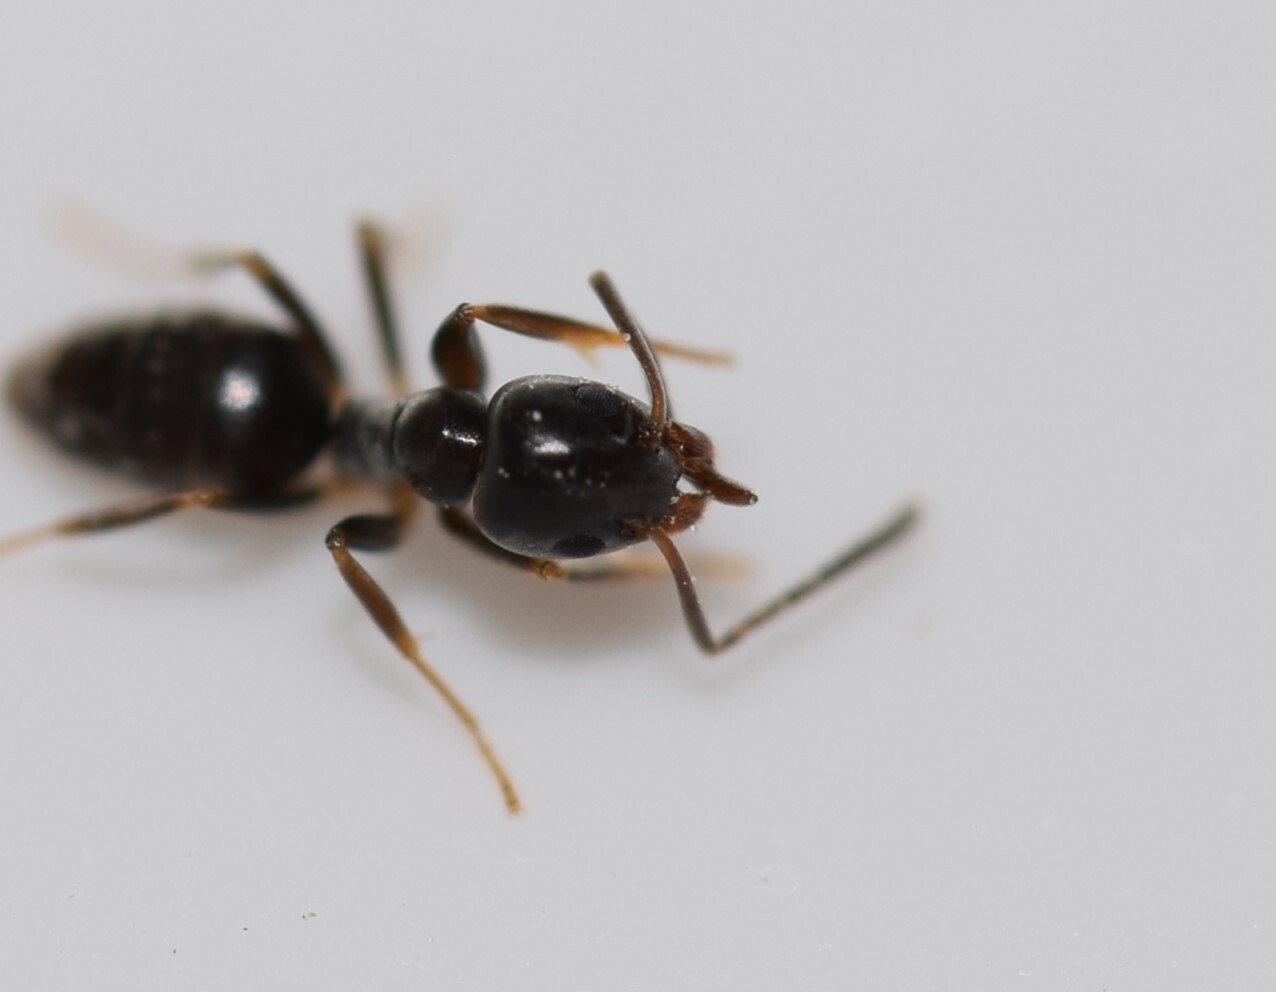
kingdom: Animalia
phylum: Arthropoda
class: Insecta
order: Hymenoptera
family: Formicidae
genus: Tapinoma
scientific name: Tapinoma sessile
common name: Odorous house ant
